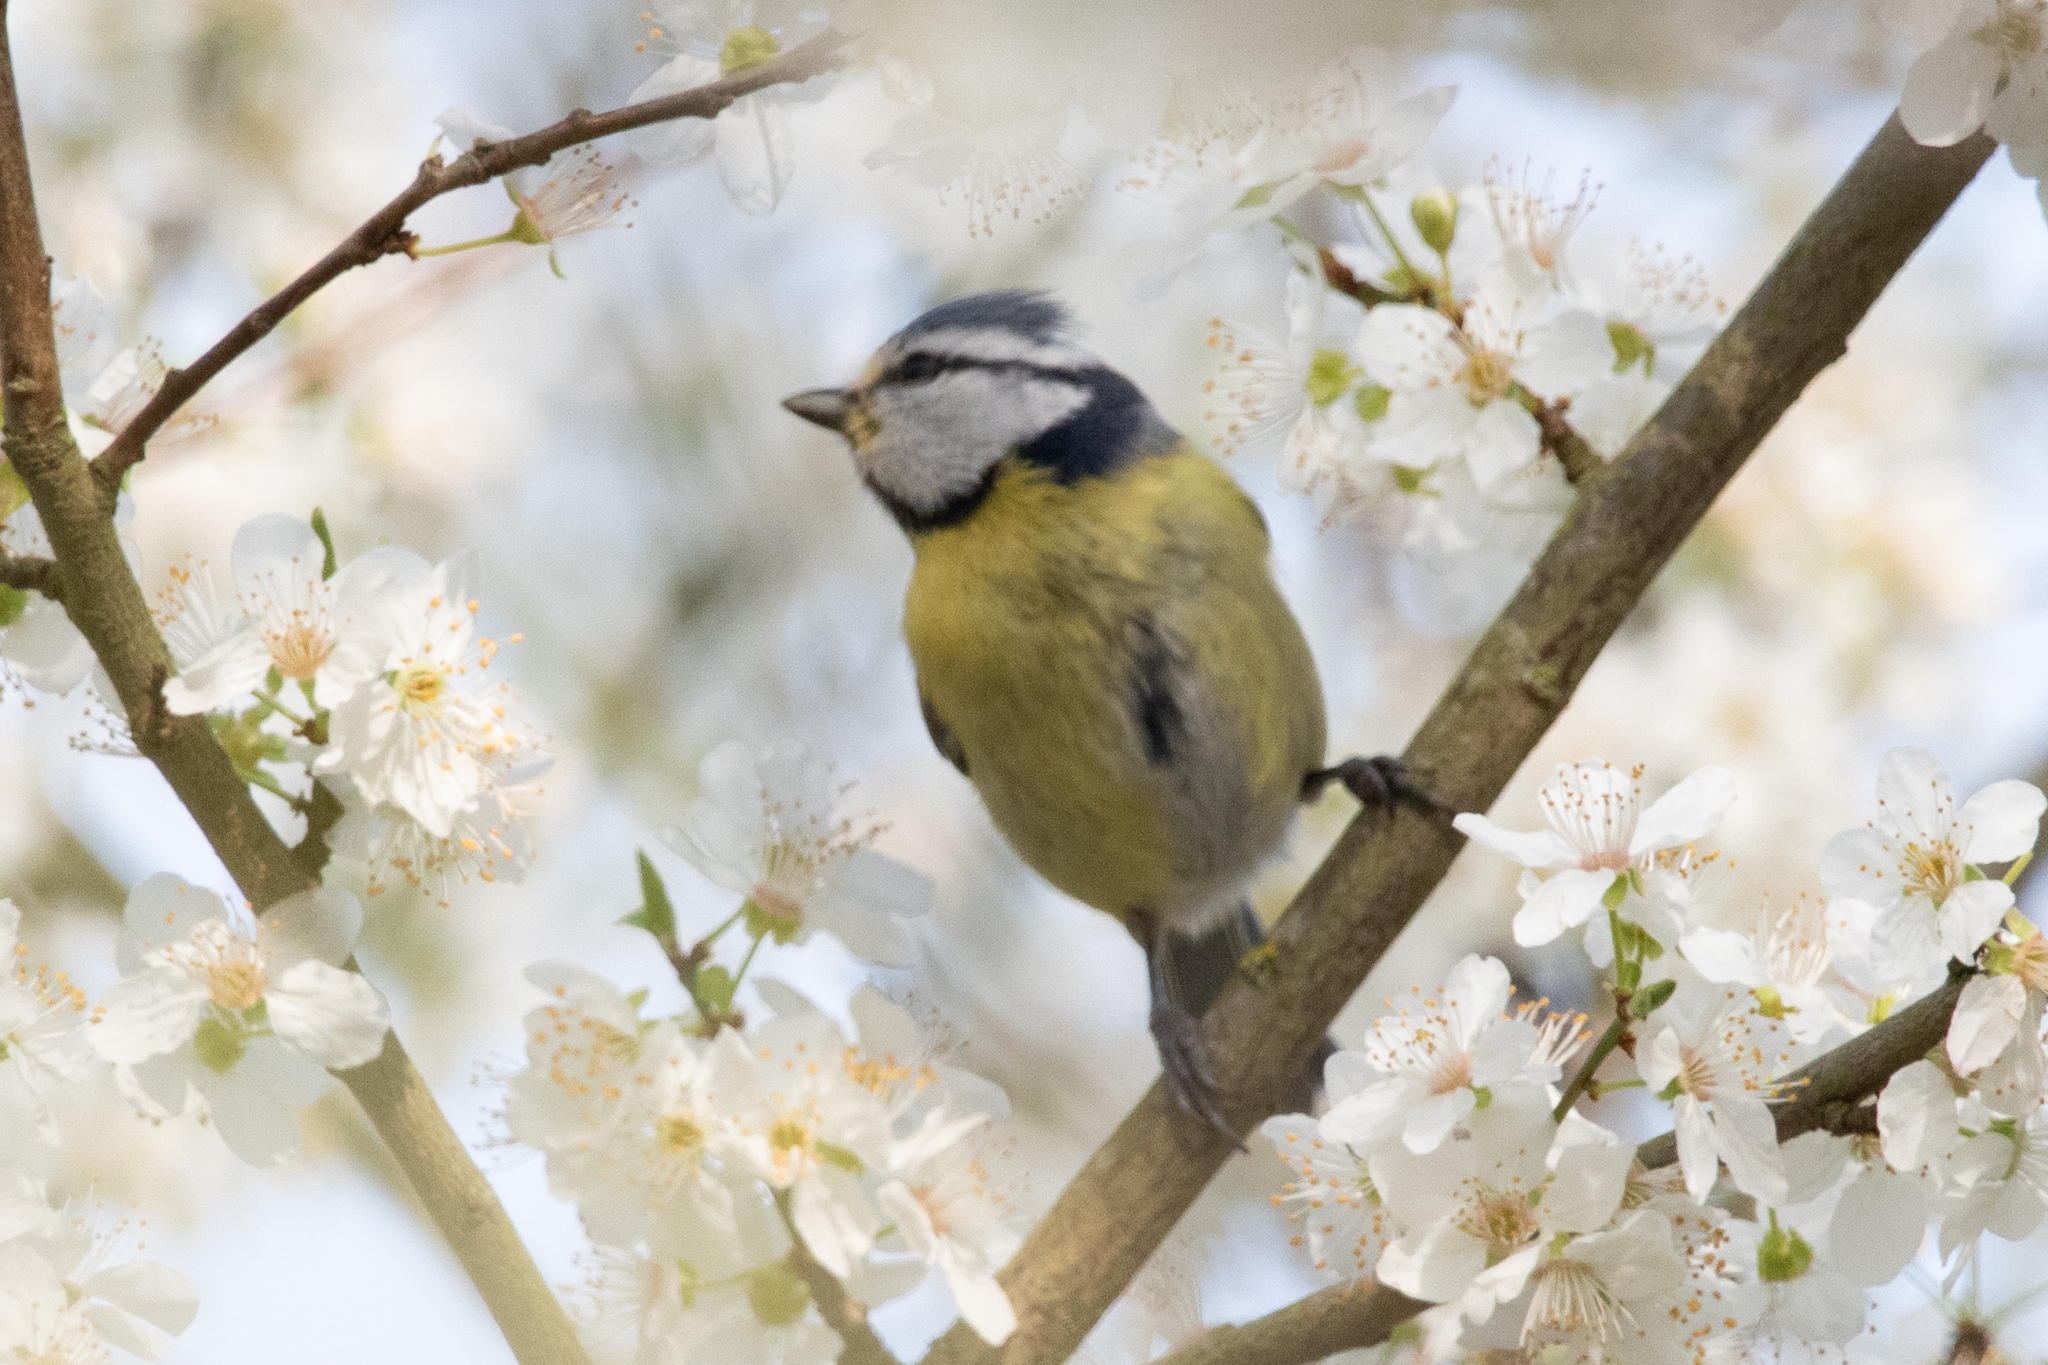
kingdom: Animalia
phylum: Chordata
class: Aves
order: Passeriformes
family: Paridae
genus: Cyanistes
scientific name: Cyanistes caeruleus
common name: Eurasian blue tit
